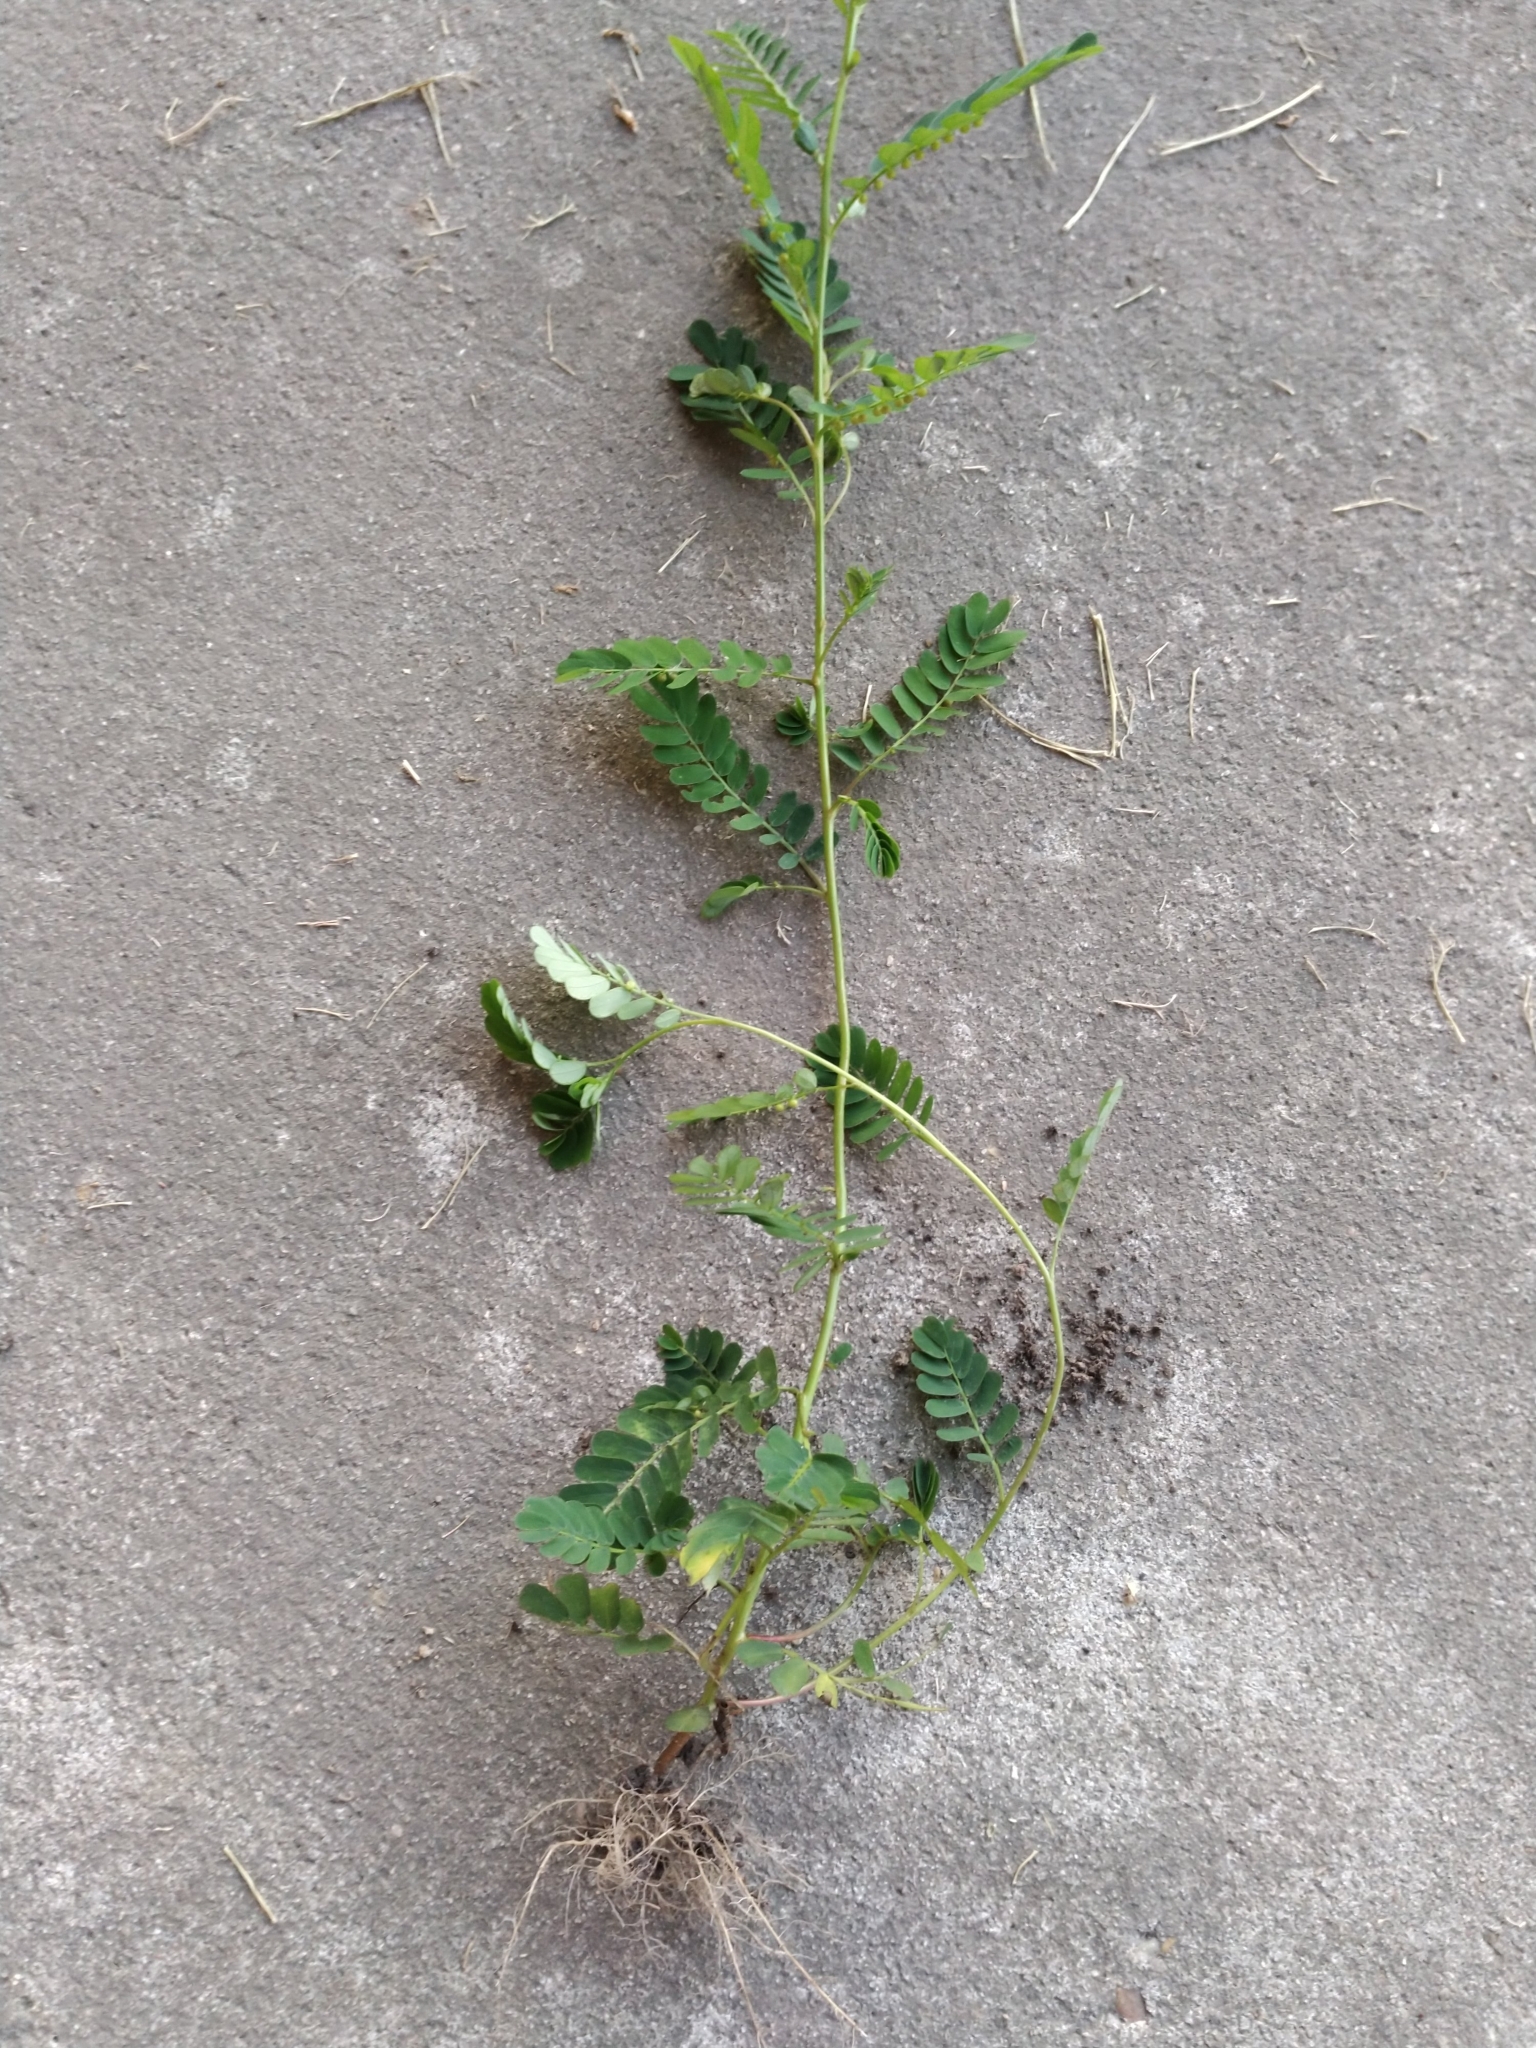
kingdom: Plantae
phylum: Tracheophyta
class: Magnoliopsida
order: Malpighiales
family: Phyllanthaceae
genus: Phyllanthus
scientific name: Phyllanthus urinaria
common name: Chamber bitter
